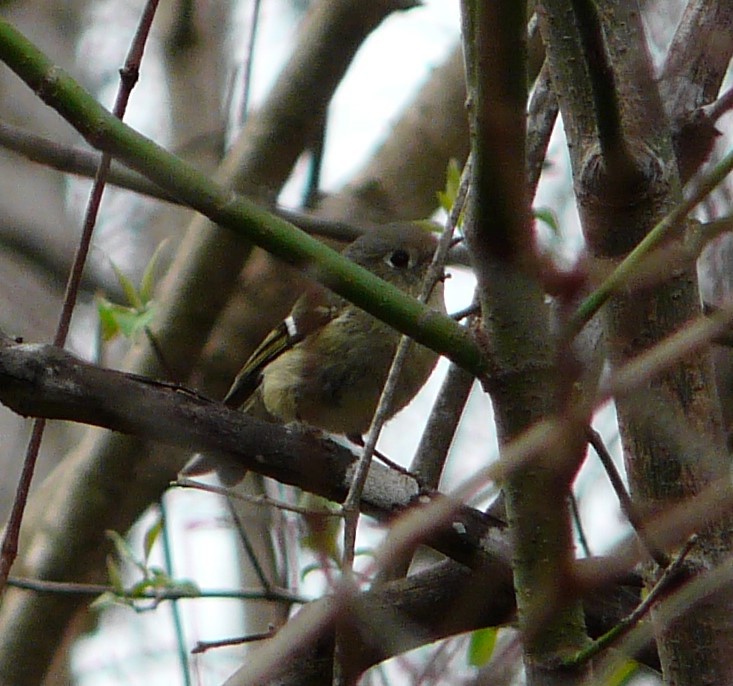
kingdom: Animalia
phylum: Chordata
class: Aves
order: Passeriformes
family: Regulidae
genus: Regulus
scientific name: Regulus calendula
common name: Ruby-crowned kinglet
